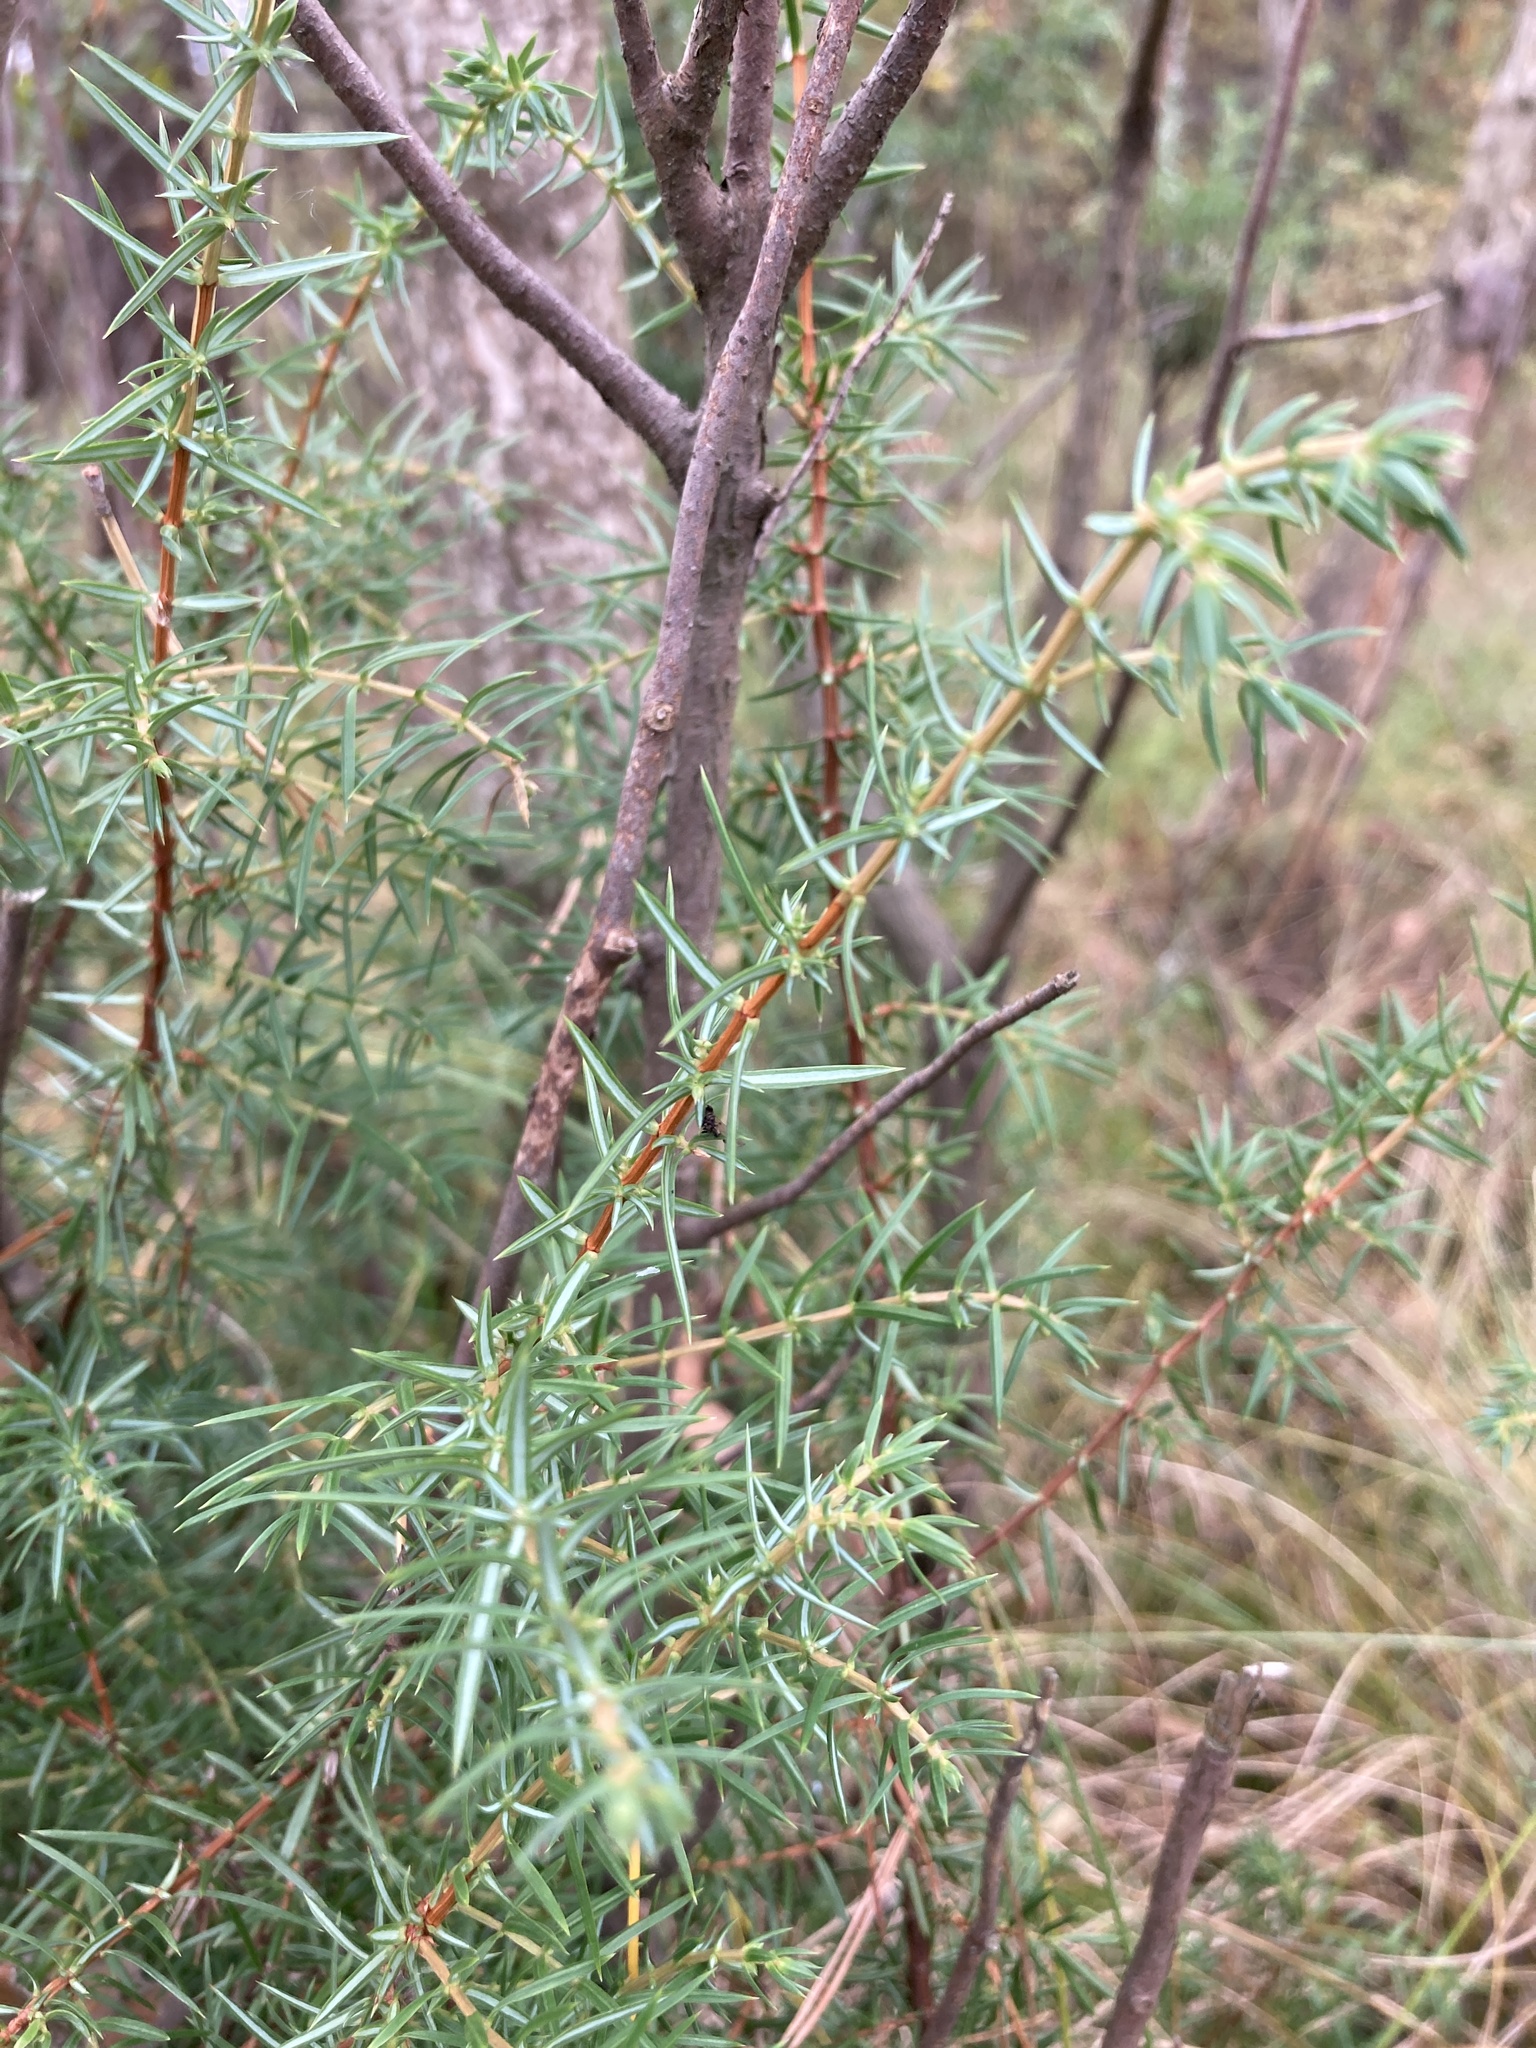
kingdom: Plantae
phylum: Tracheophyta
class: Pinopsida
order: Pinales
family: Cupressaceae
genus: Juniperus
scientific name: Juniperus communis
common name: Common juniper
